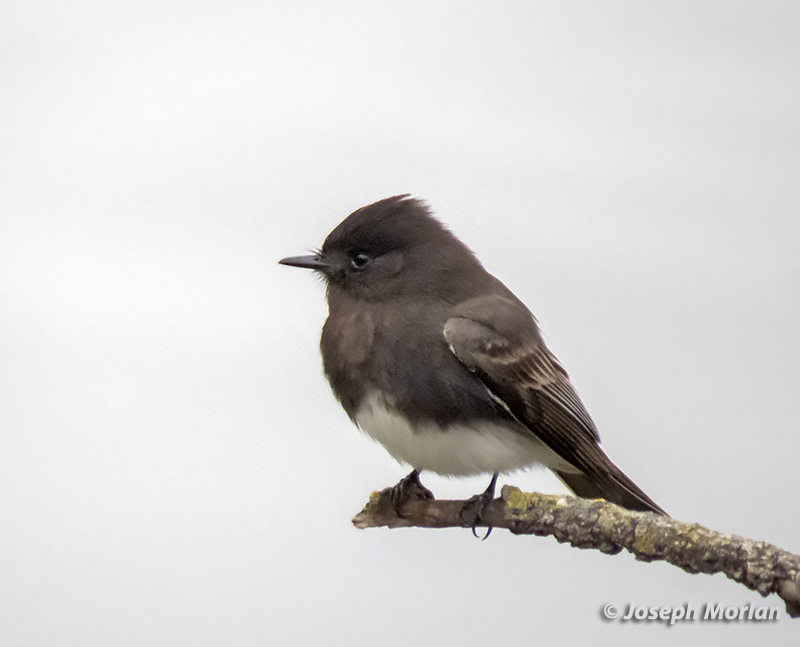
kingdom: Animalia
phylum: Chordata
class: Aves
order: Passeriformes
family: Tyrannidae
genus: Sayornis
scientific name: Sayornis nigricans
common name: Black phoebe
